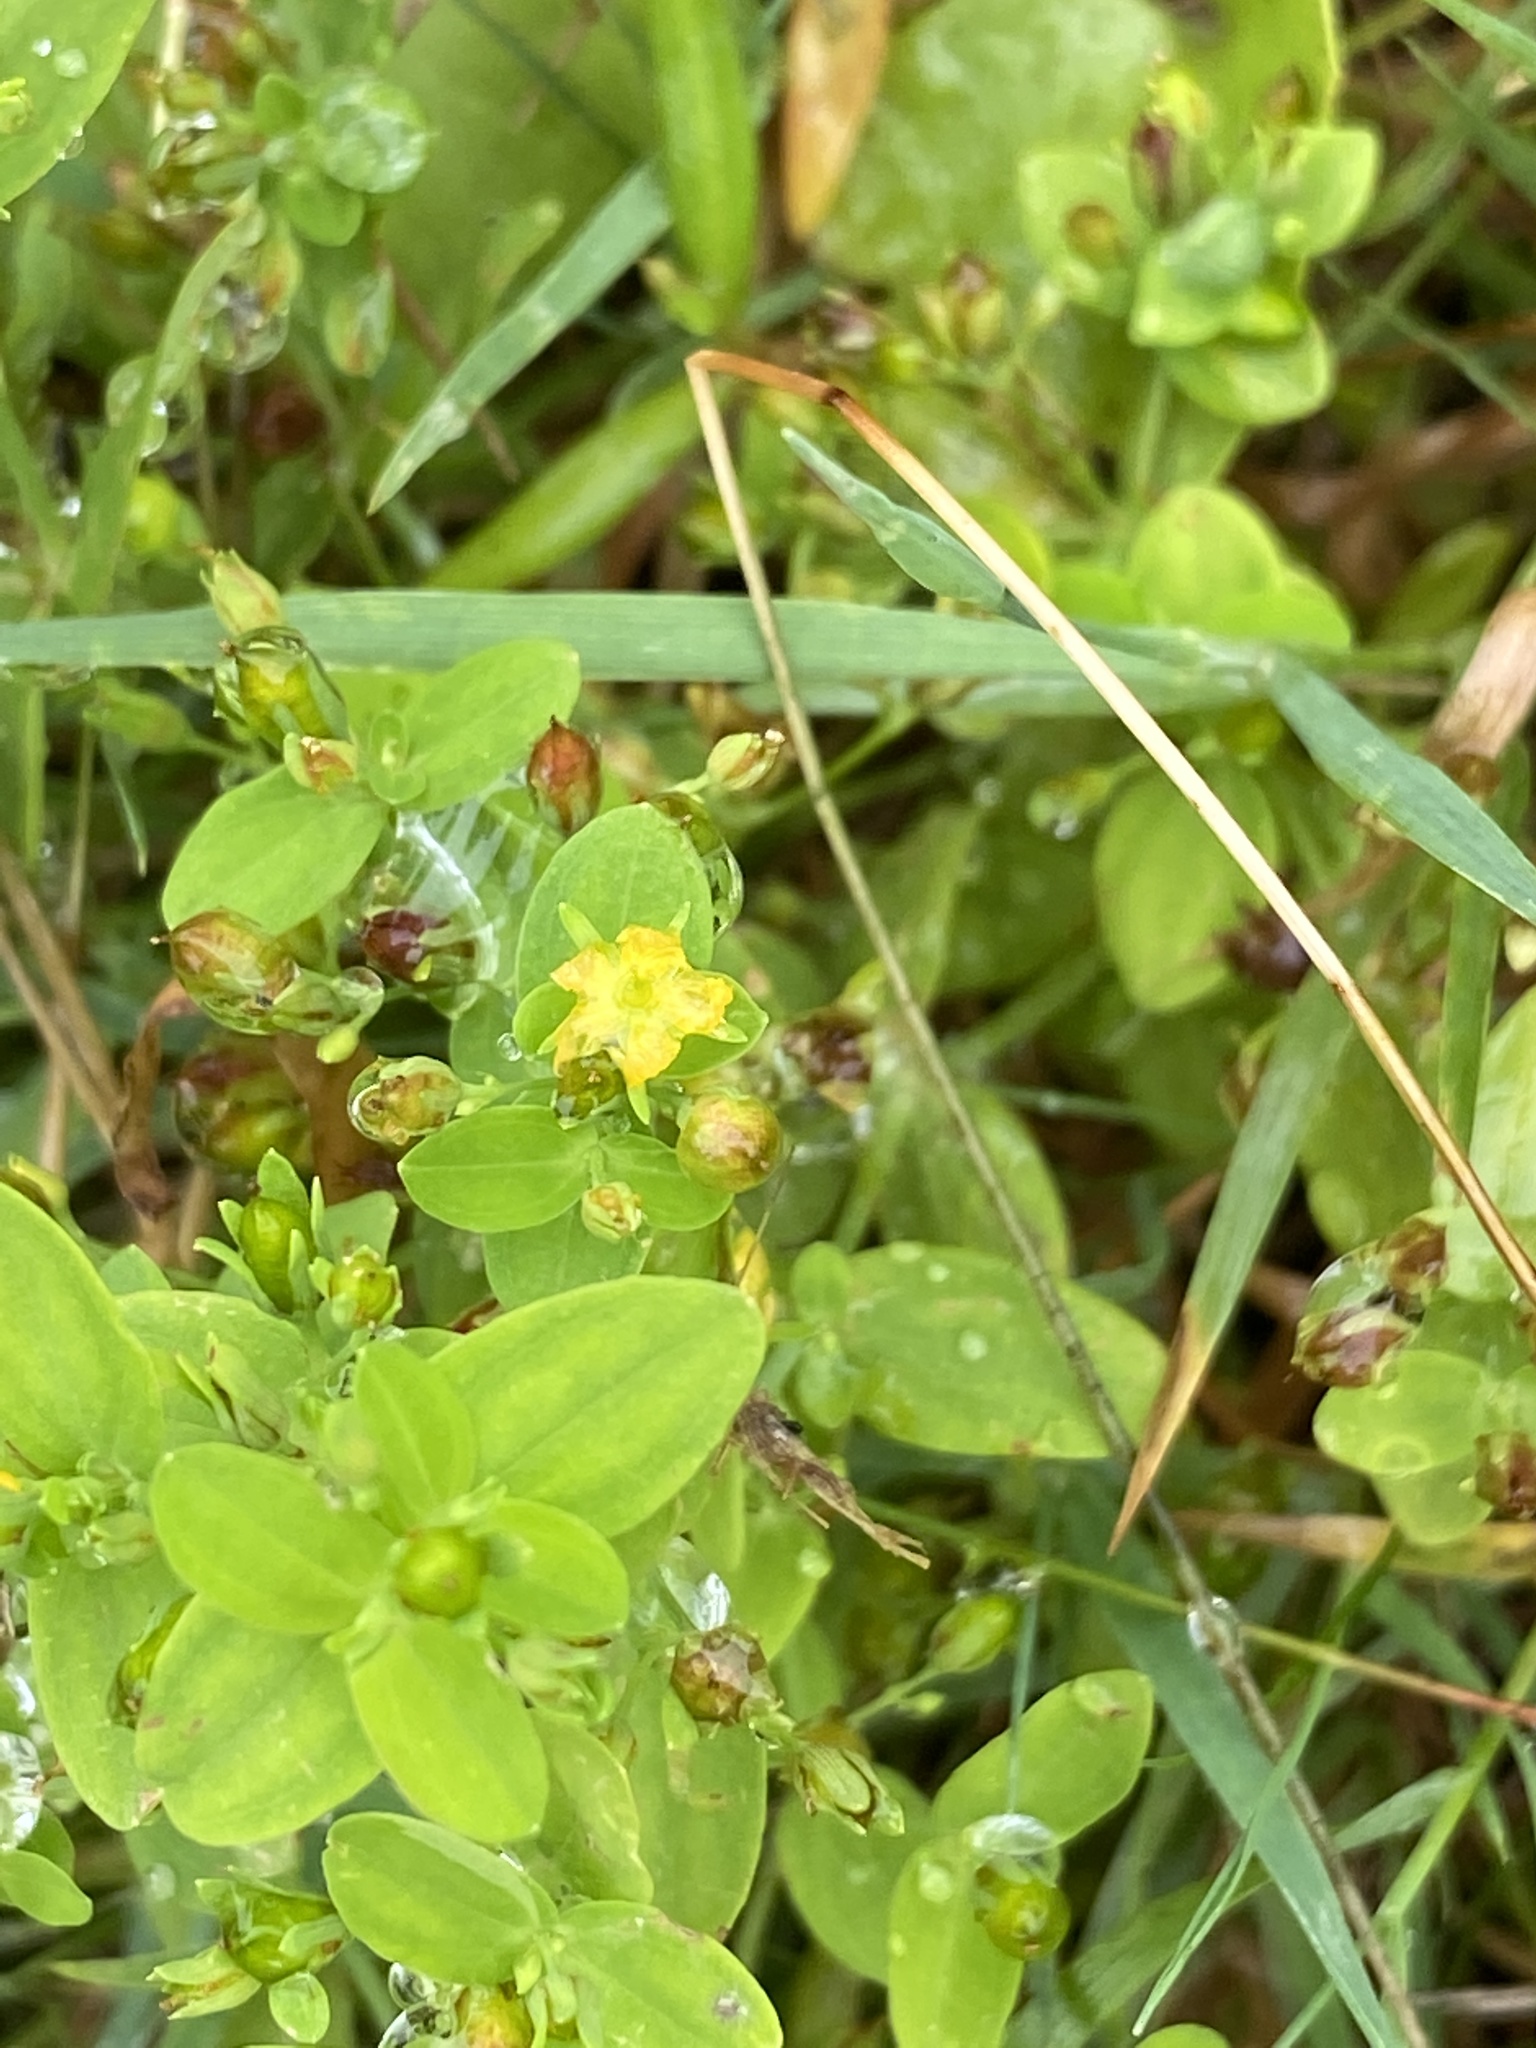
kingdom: Plantae
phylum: Tracheophyta
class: Magnoliopsida
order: Malpighiales
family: Hypericaceae
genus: Hypericum
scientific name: Hypericum mutilum
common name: Dwarf st. john's-wort
